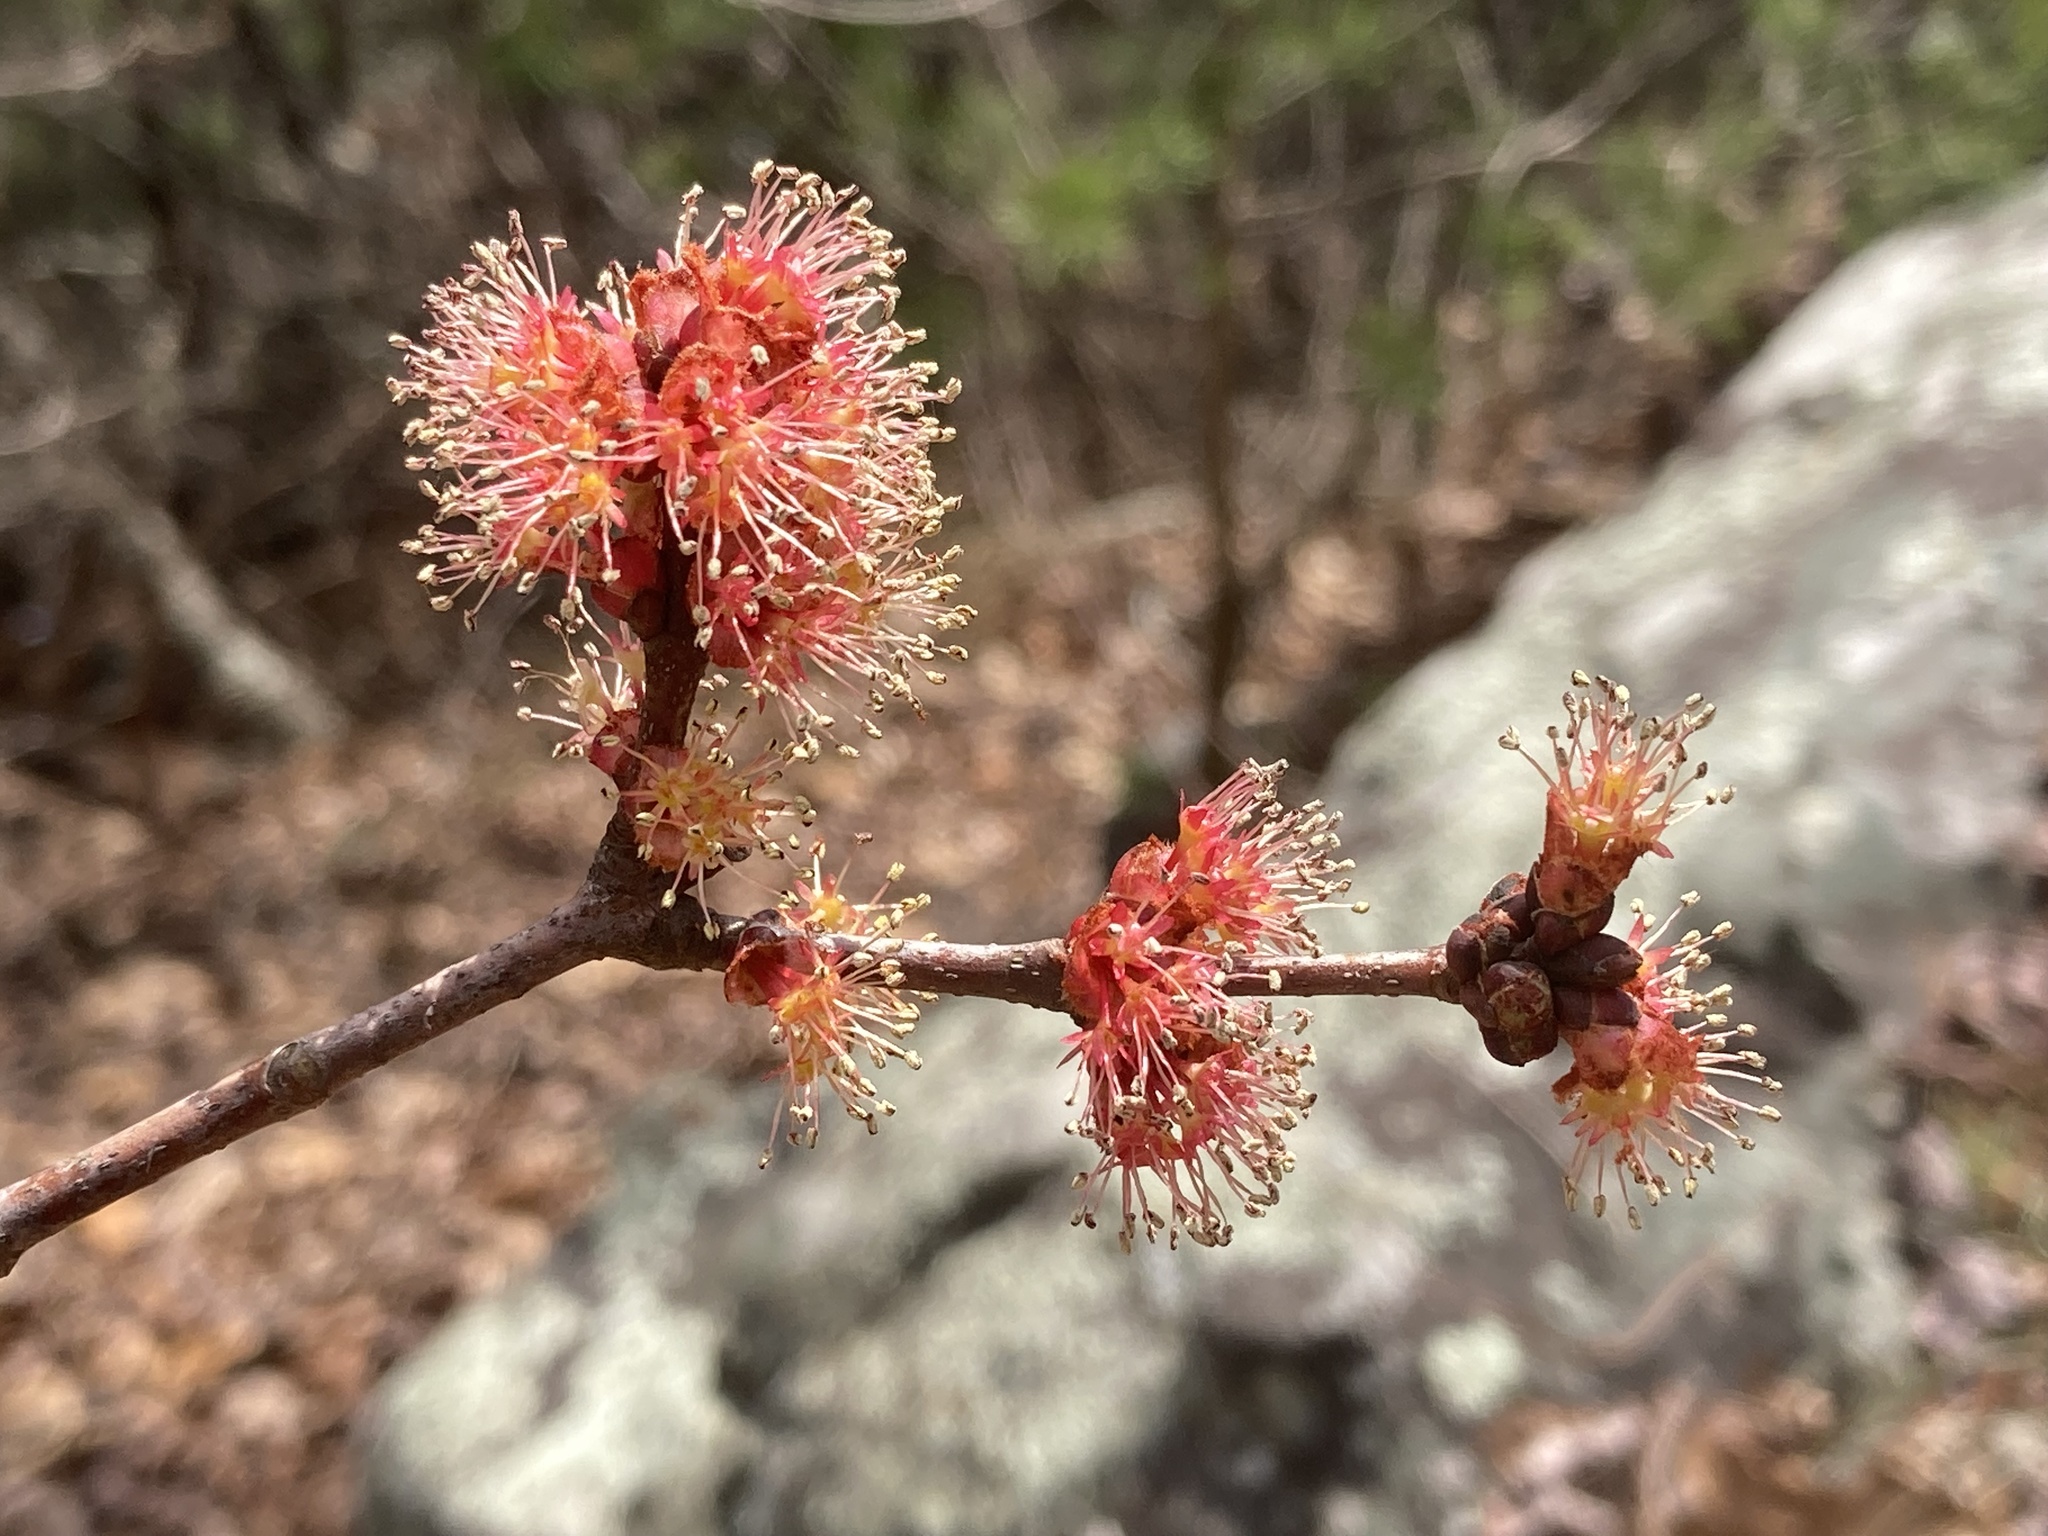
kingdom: Plantae
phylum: Tracheophyta
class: Magnoliopsida
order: Sapindales
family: Sapindaceae
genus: Acer
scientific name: Acer rubrum
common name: Red maple
